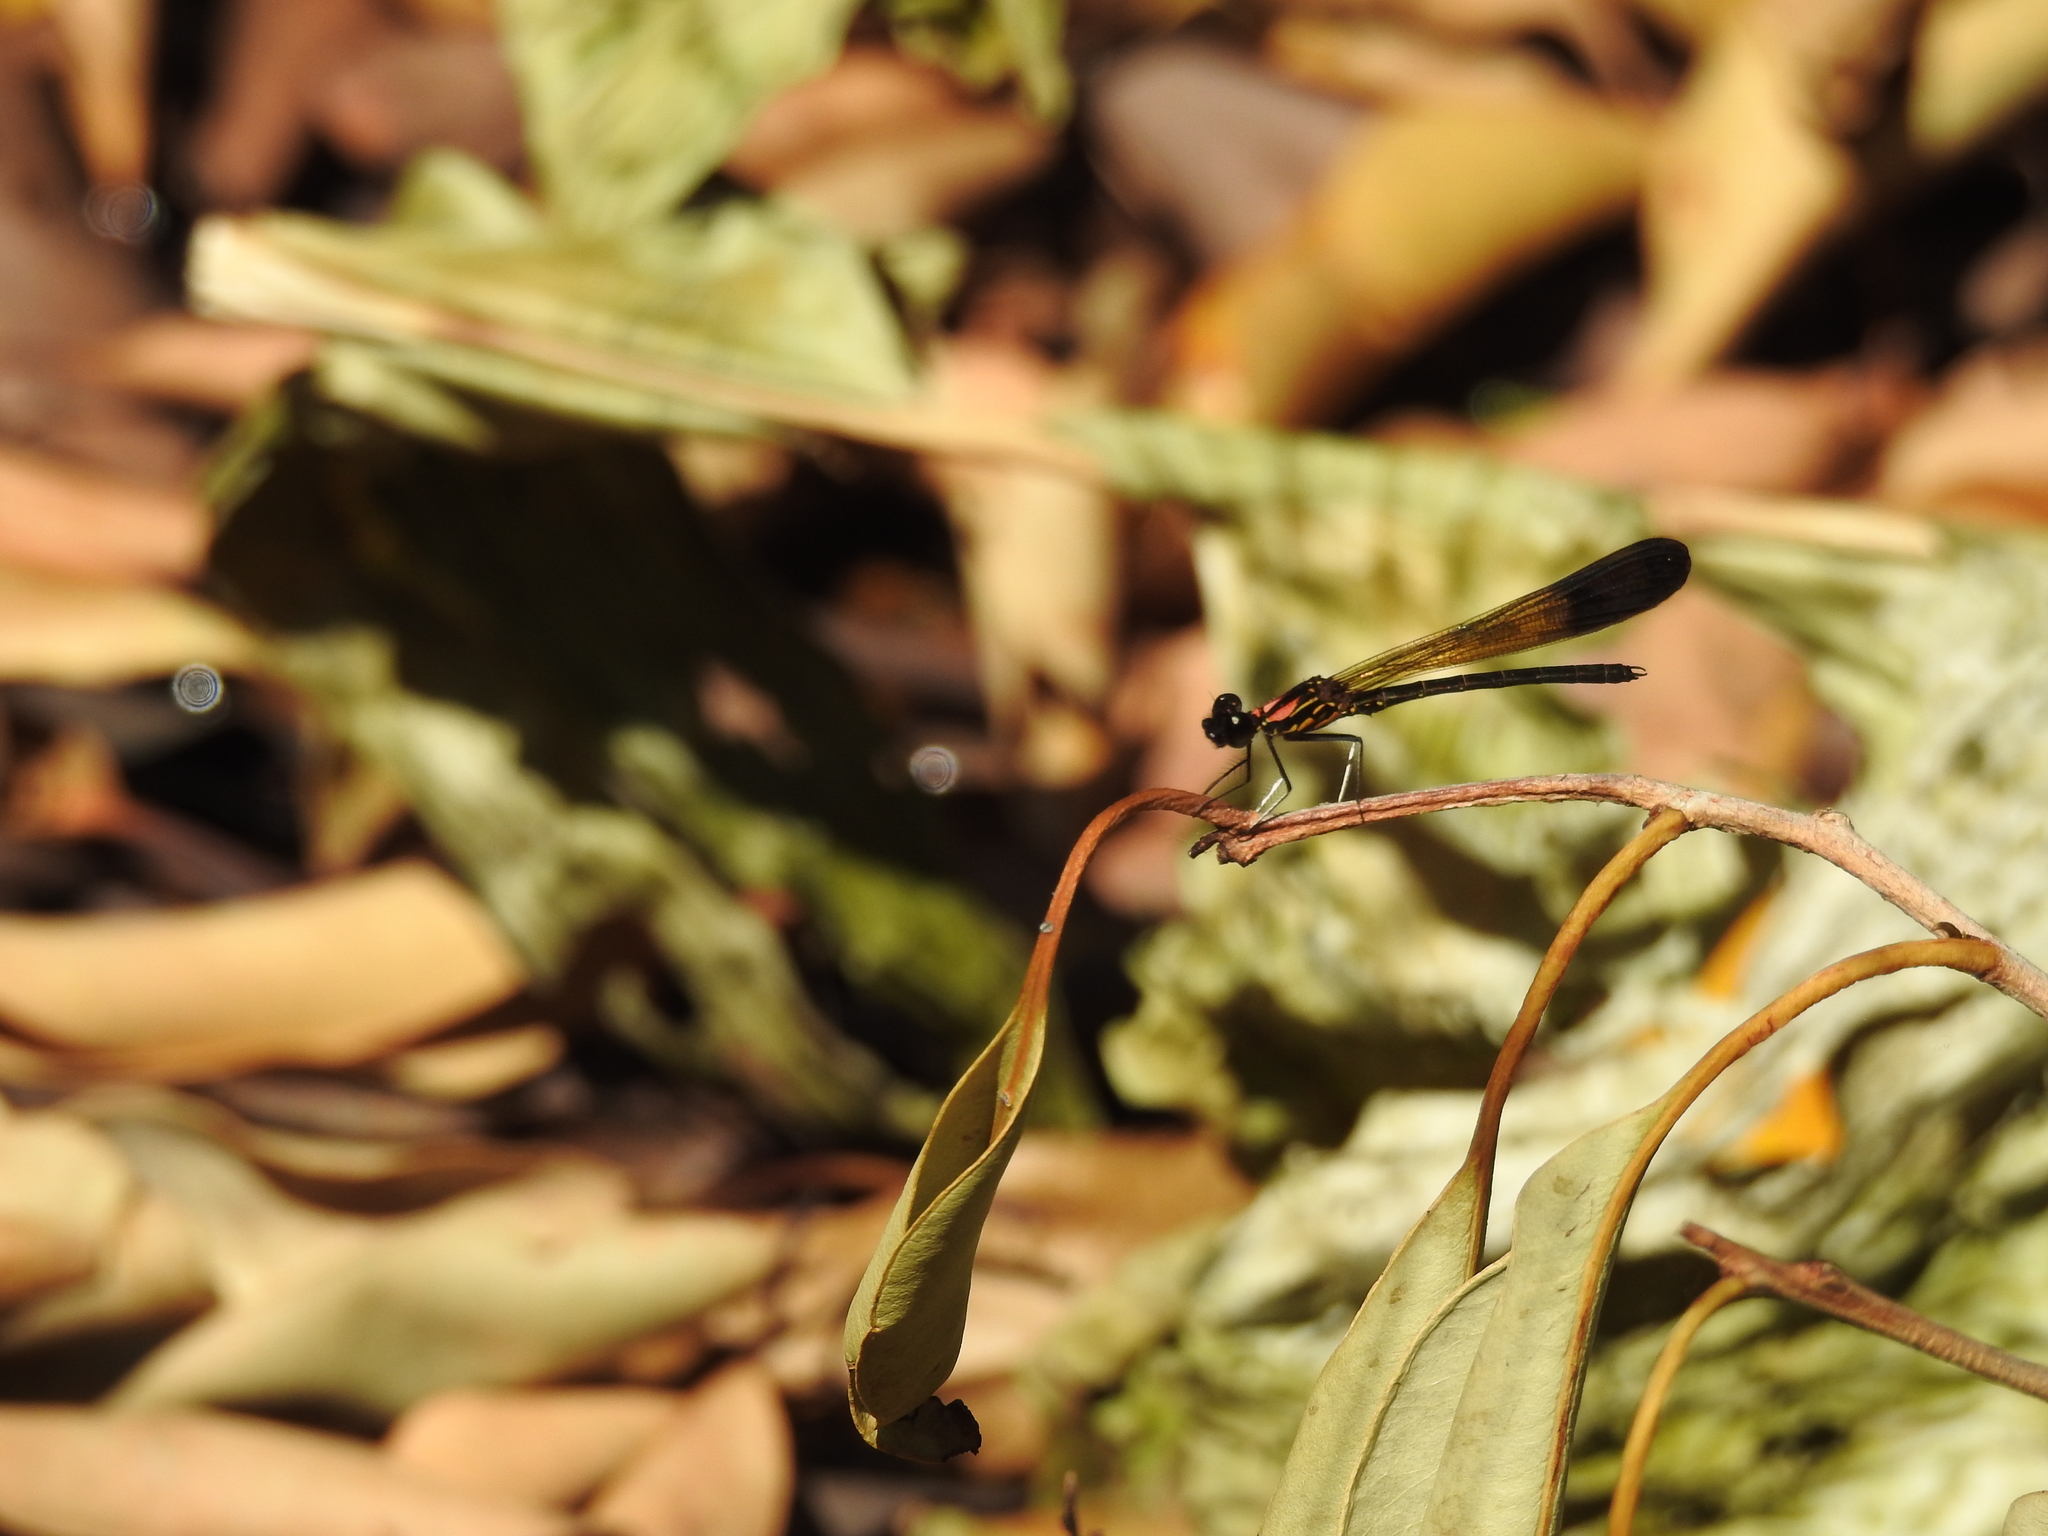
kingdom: Animalia
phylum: Arthropoda
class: Insecta
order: Odonata
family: Chlorocyphidae
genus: Heliocypha
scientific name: Heliocypha bisignata
